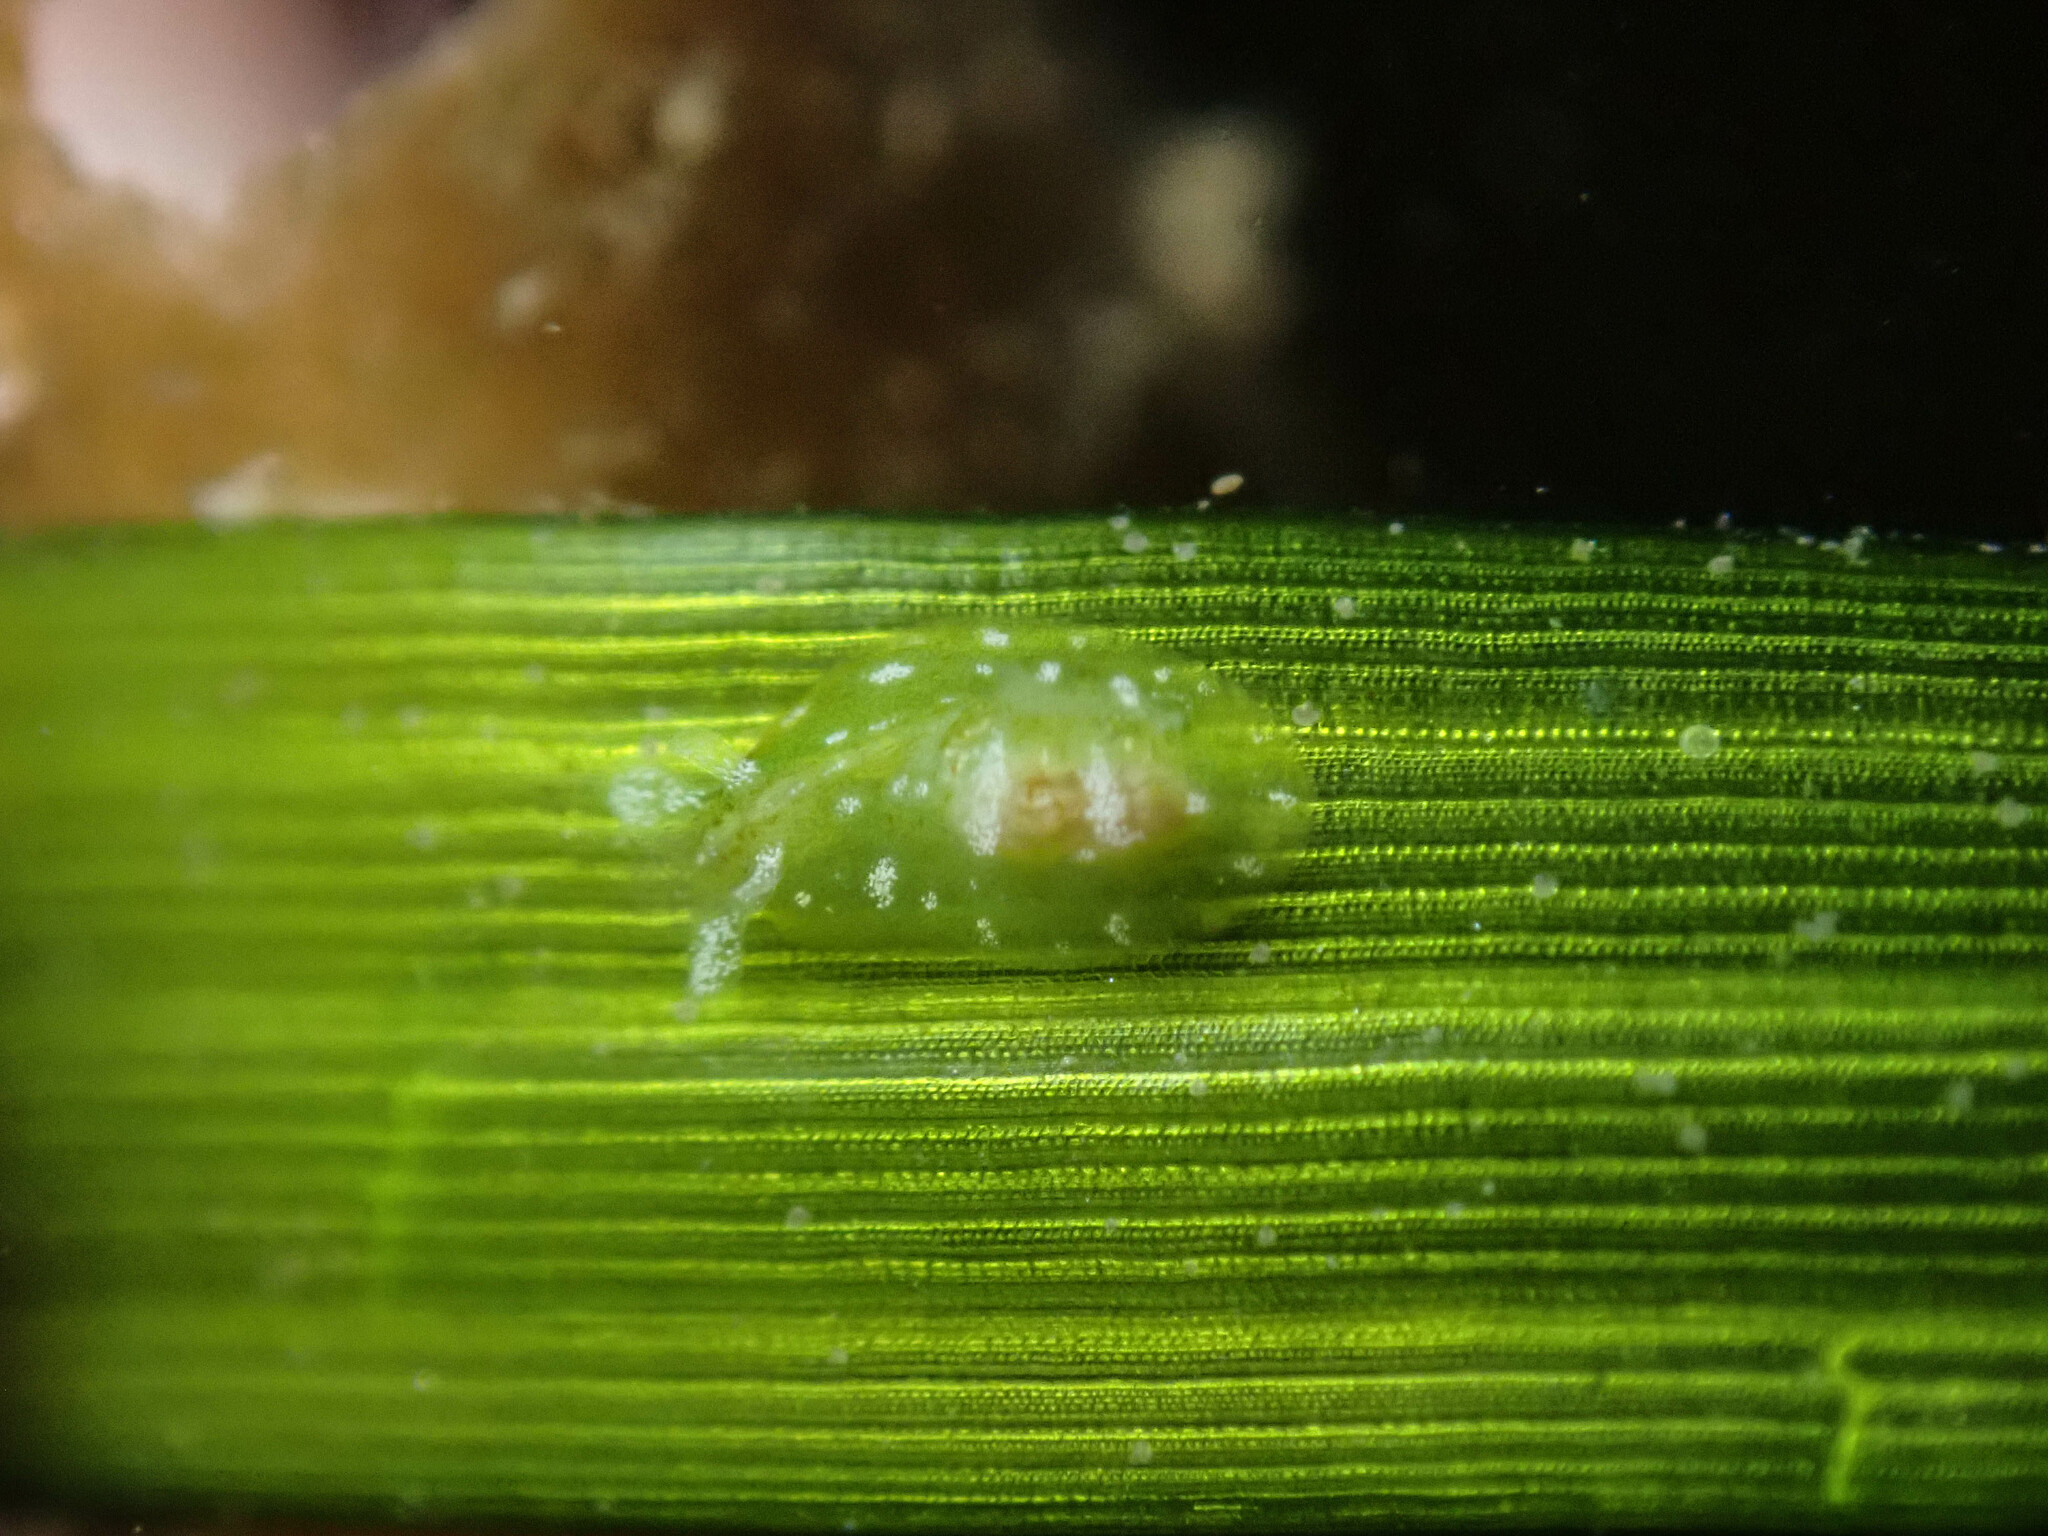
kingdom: Animalia
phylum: Mollusca
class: Gastropoda
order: Aplysiida
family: Aplysiidae
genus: Phyllaplysia
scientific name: Phyllaplysia taylori
